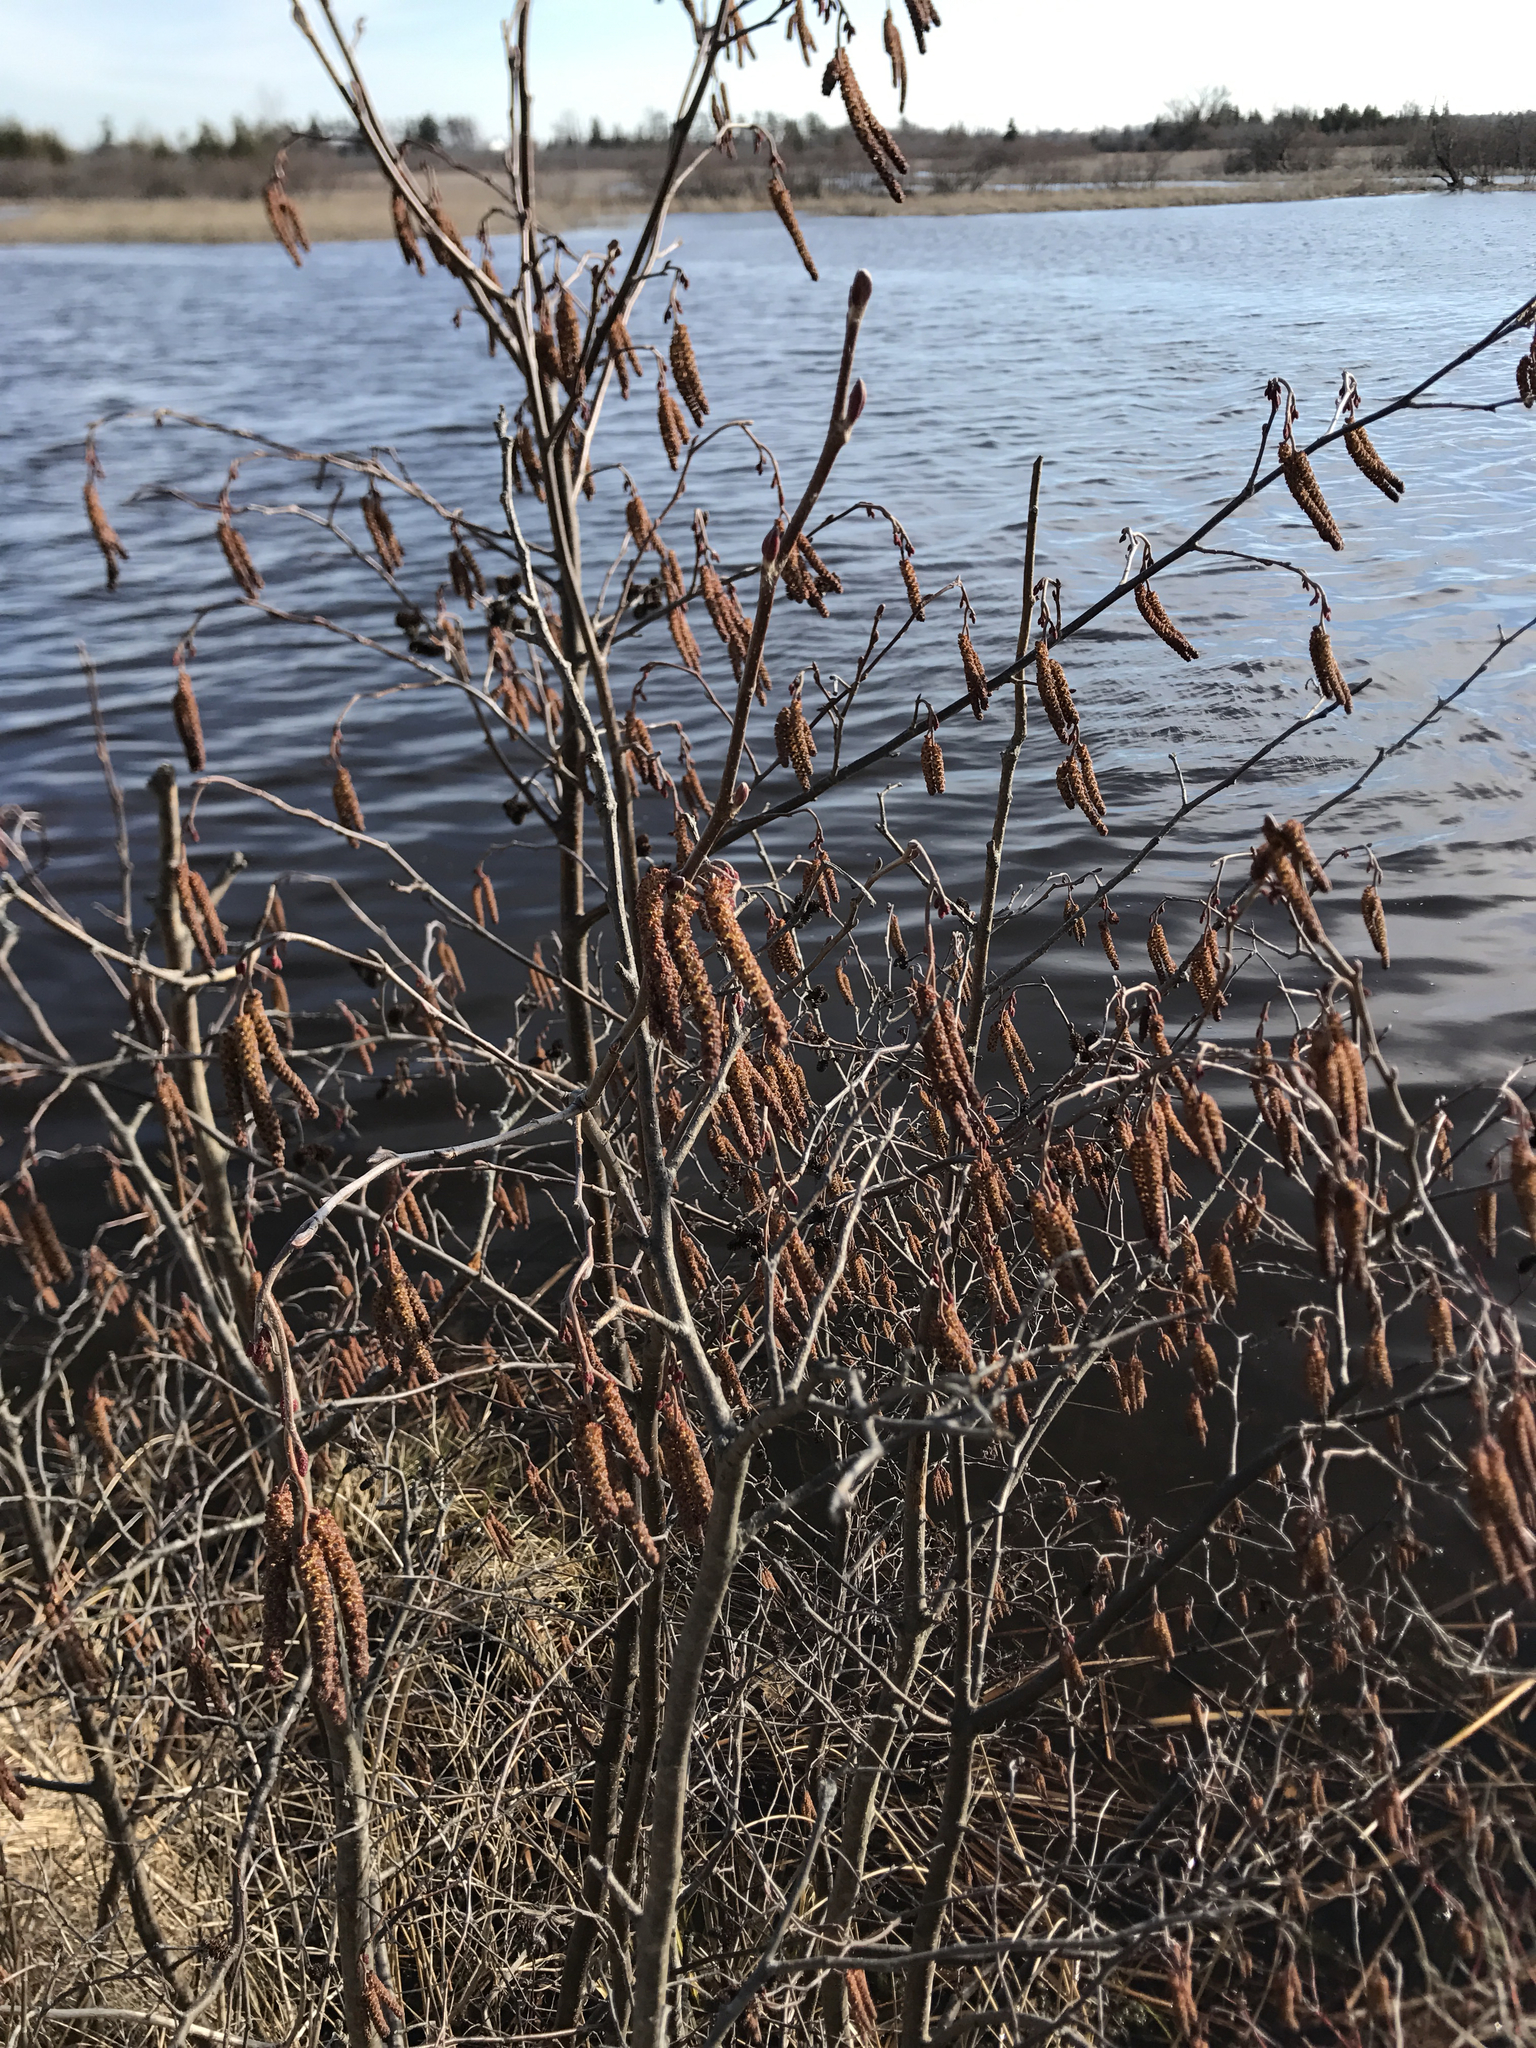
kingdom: Plantae
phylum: Tracheophyta
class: Magnoliopsida
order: Fagales
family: Betulaceae
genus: Alnus
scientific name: Alnus incana
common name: Grey alder
